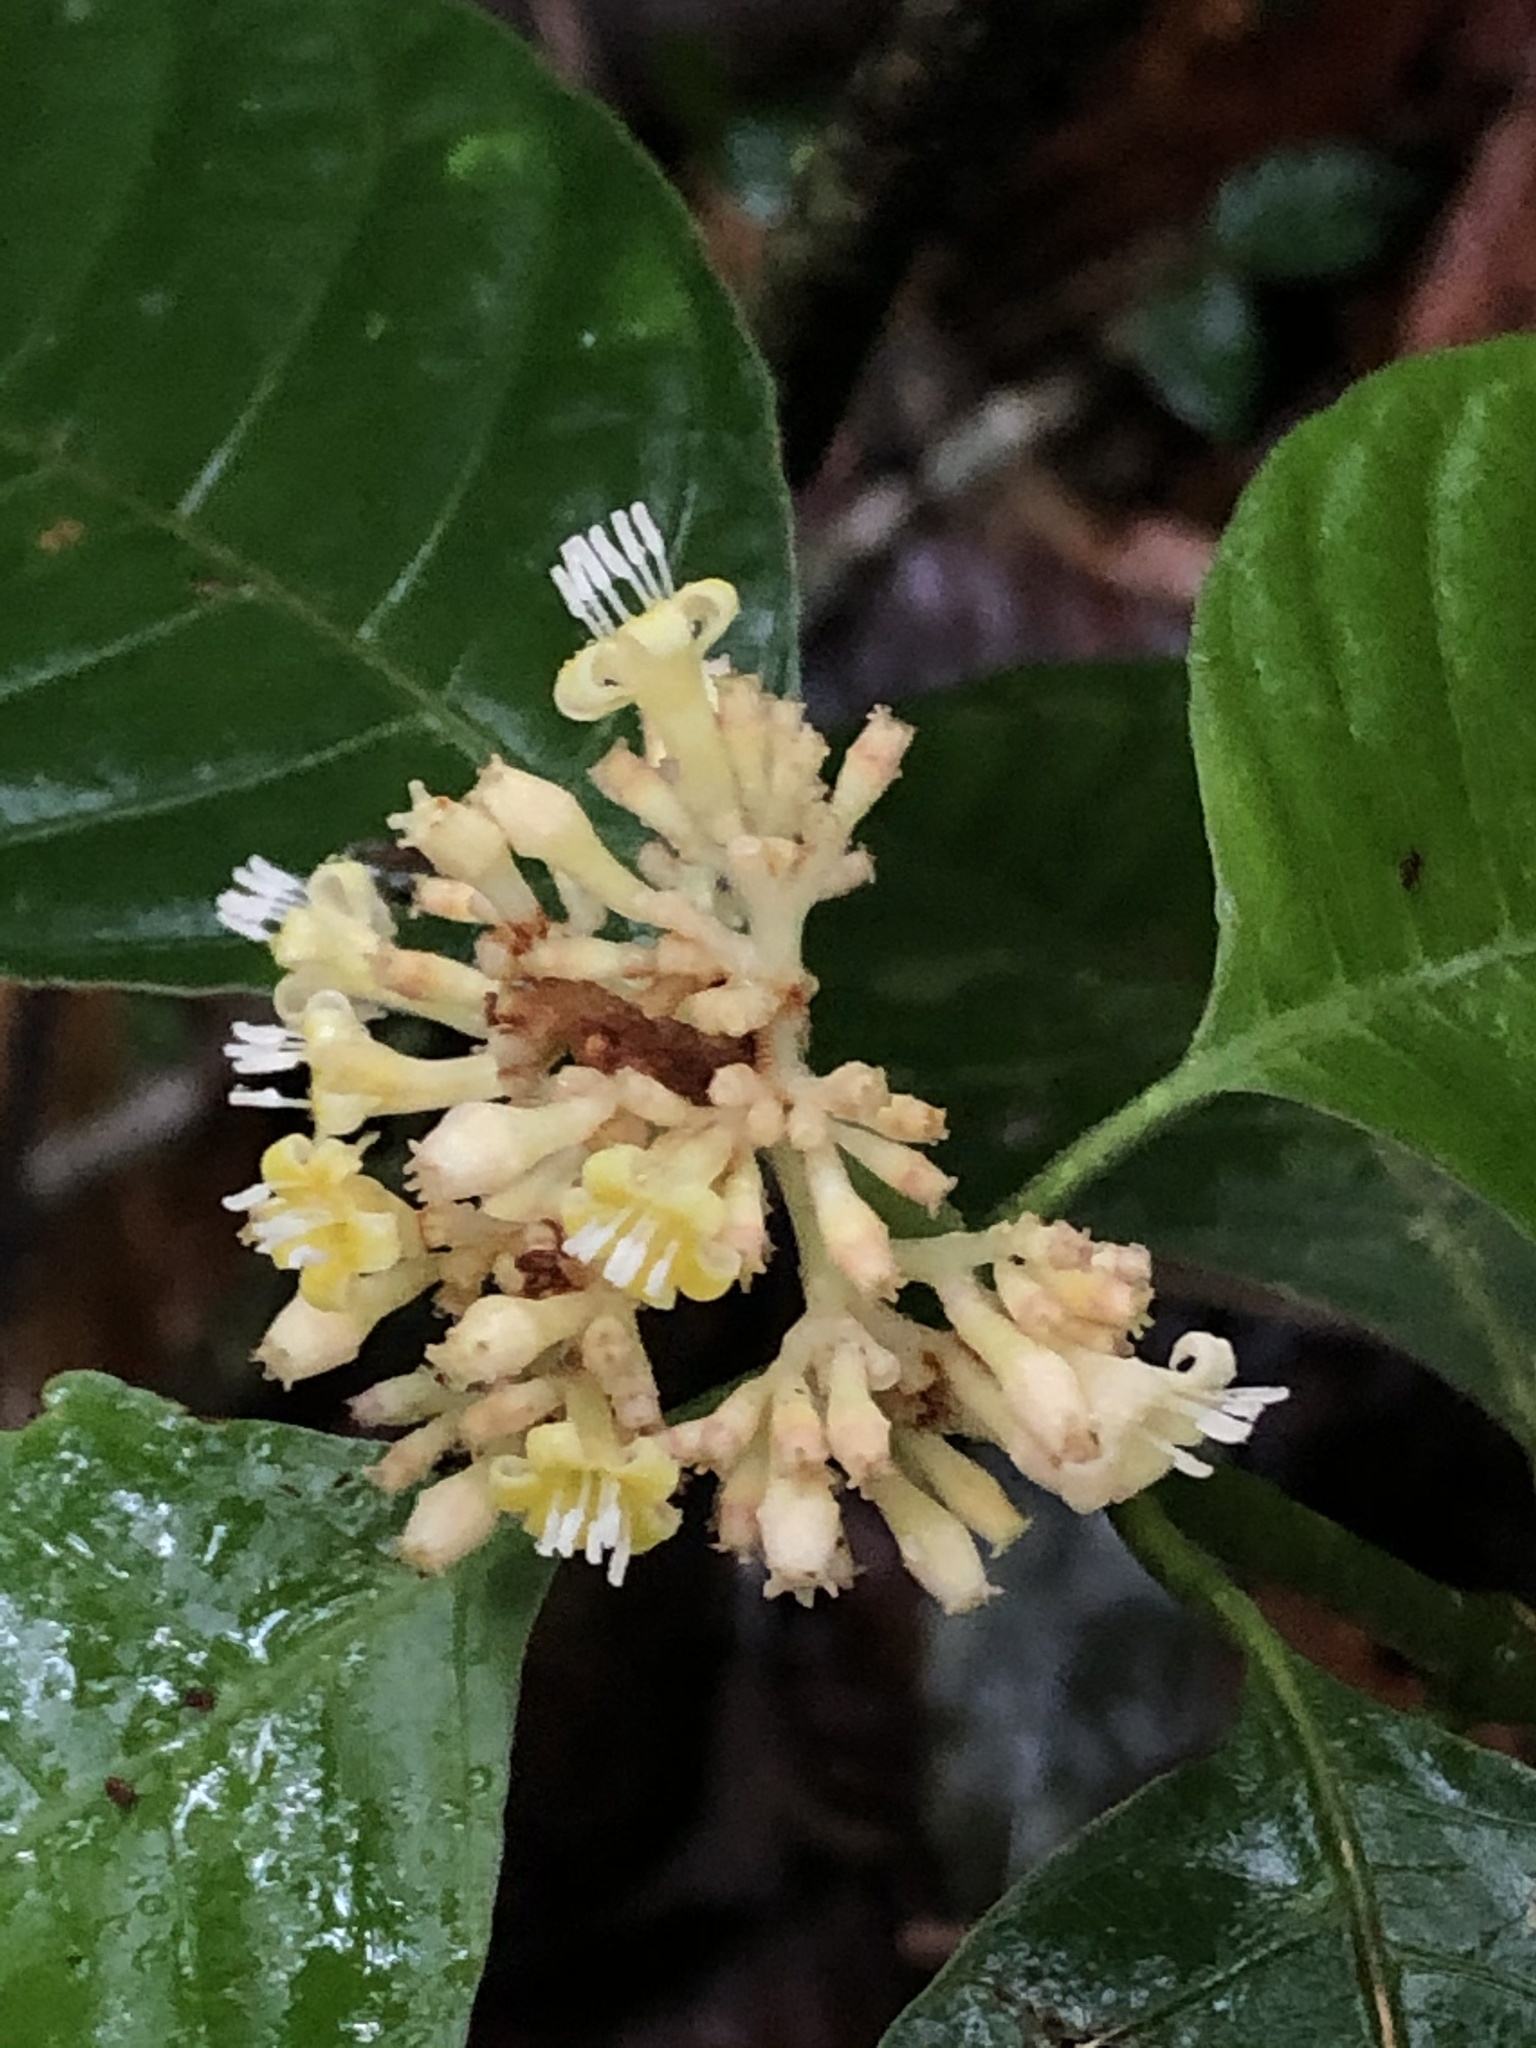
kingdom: Plantae
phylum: Tracheophyta
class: Magnoliopsida
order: Gentianales
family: Rubiaceae
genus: Palicourea
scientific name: Palicourea didymocarpos
